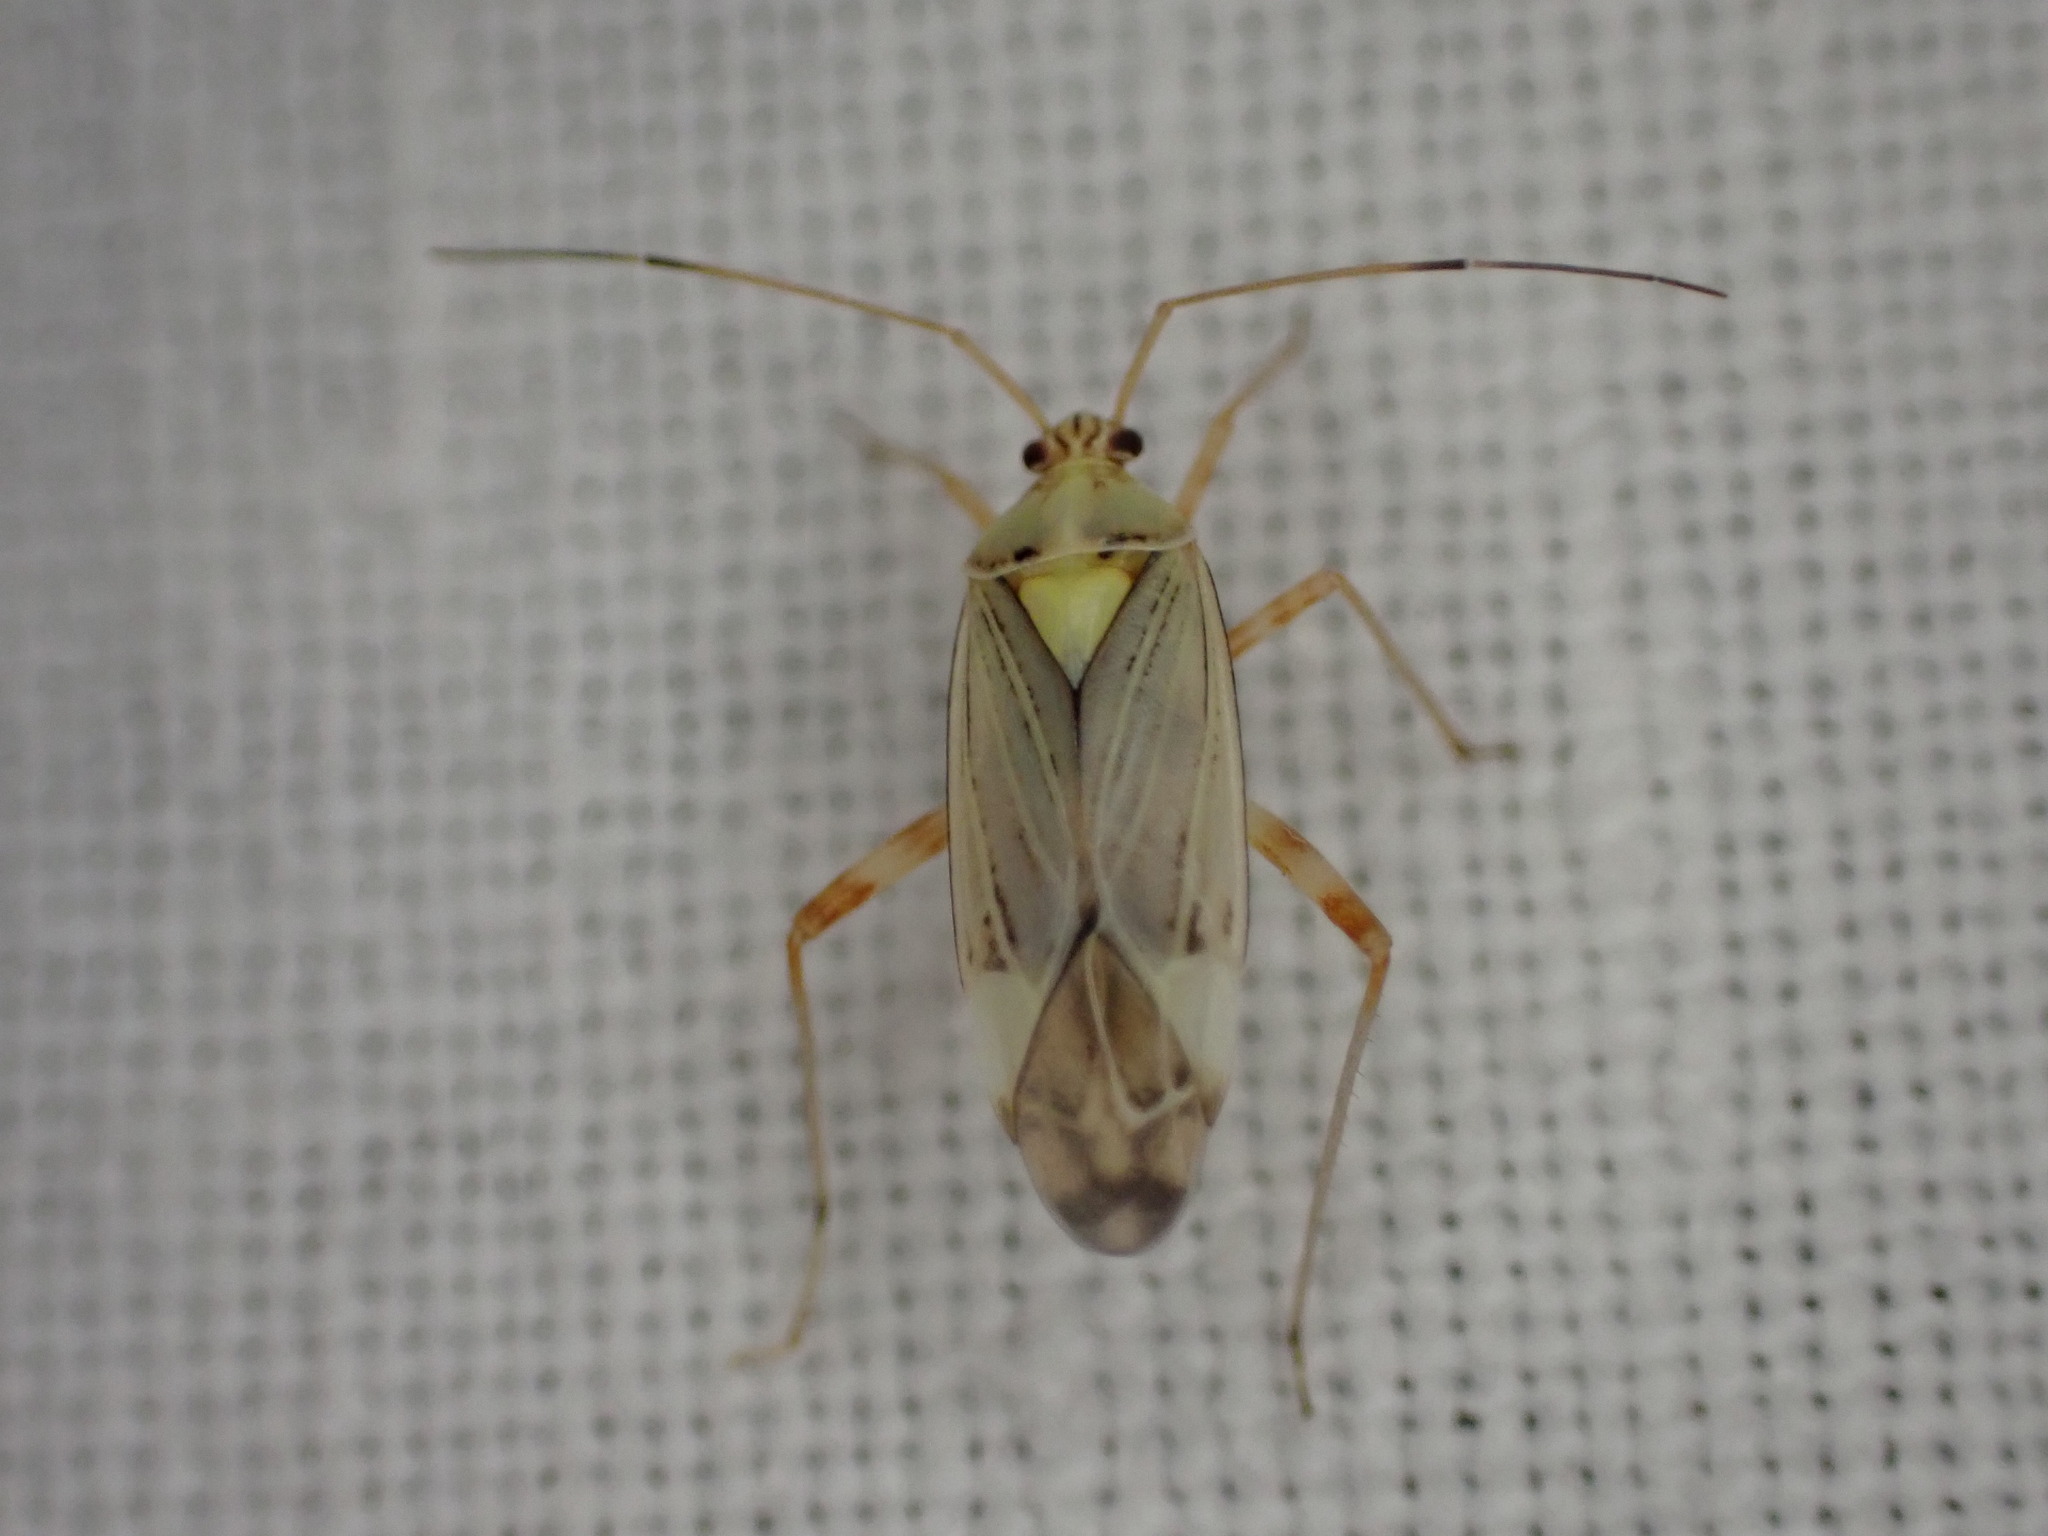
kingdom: Animalia
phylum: Arthropoda
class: Insecta
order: Hemiptera
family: Miridae
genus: Rhabdomiris
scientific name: Rhabdomiris striatellus
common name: Plant bug
